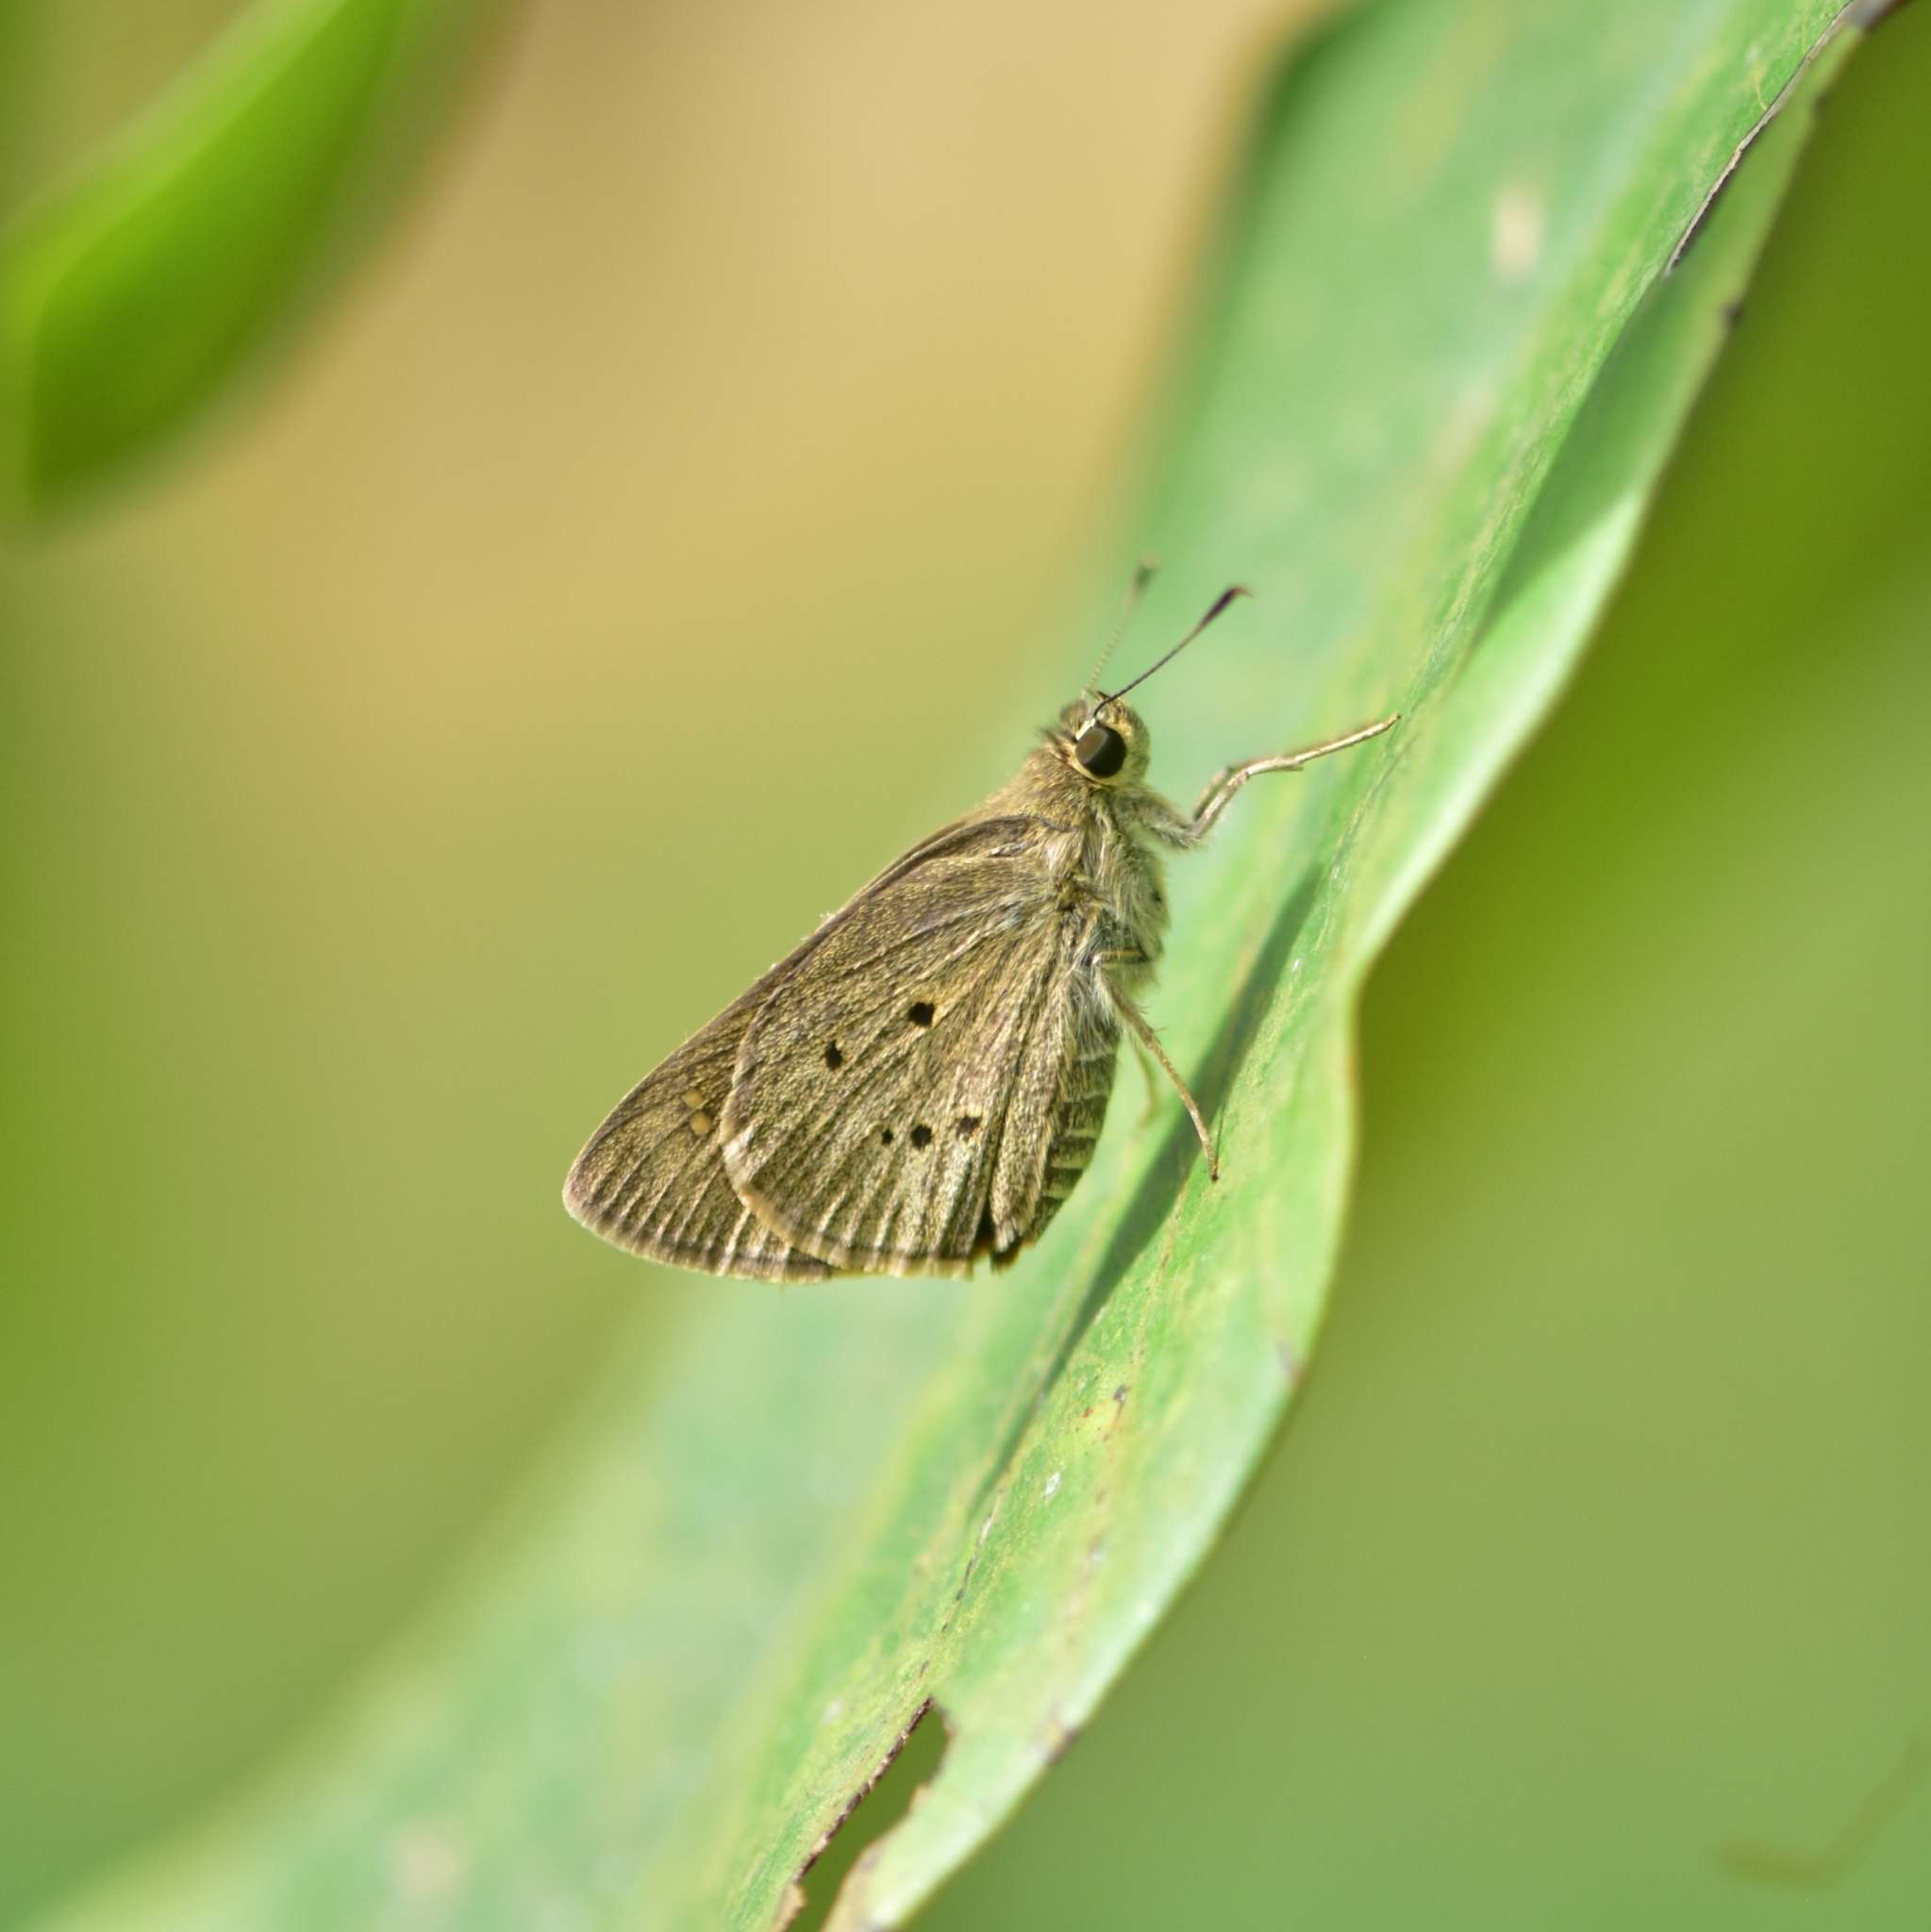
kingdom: Animalia
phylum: Arthropoda
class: Insecta
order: Lepidoptera
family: Hesperiidae
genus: Suastus
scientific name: Suastus gremius
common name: Indian palm bob
